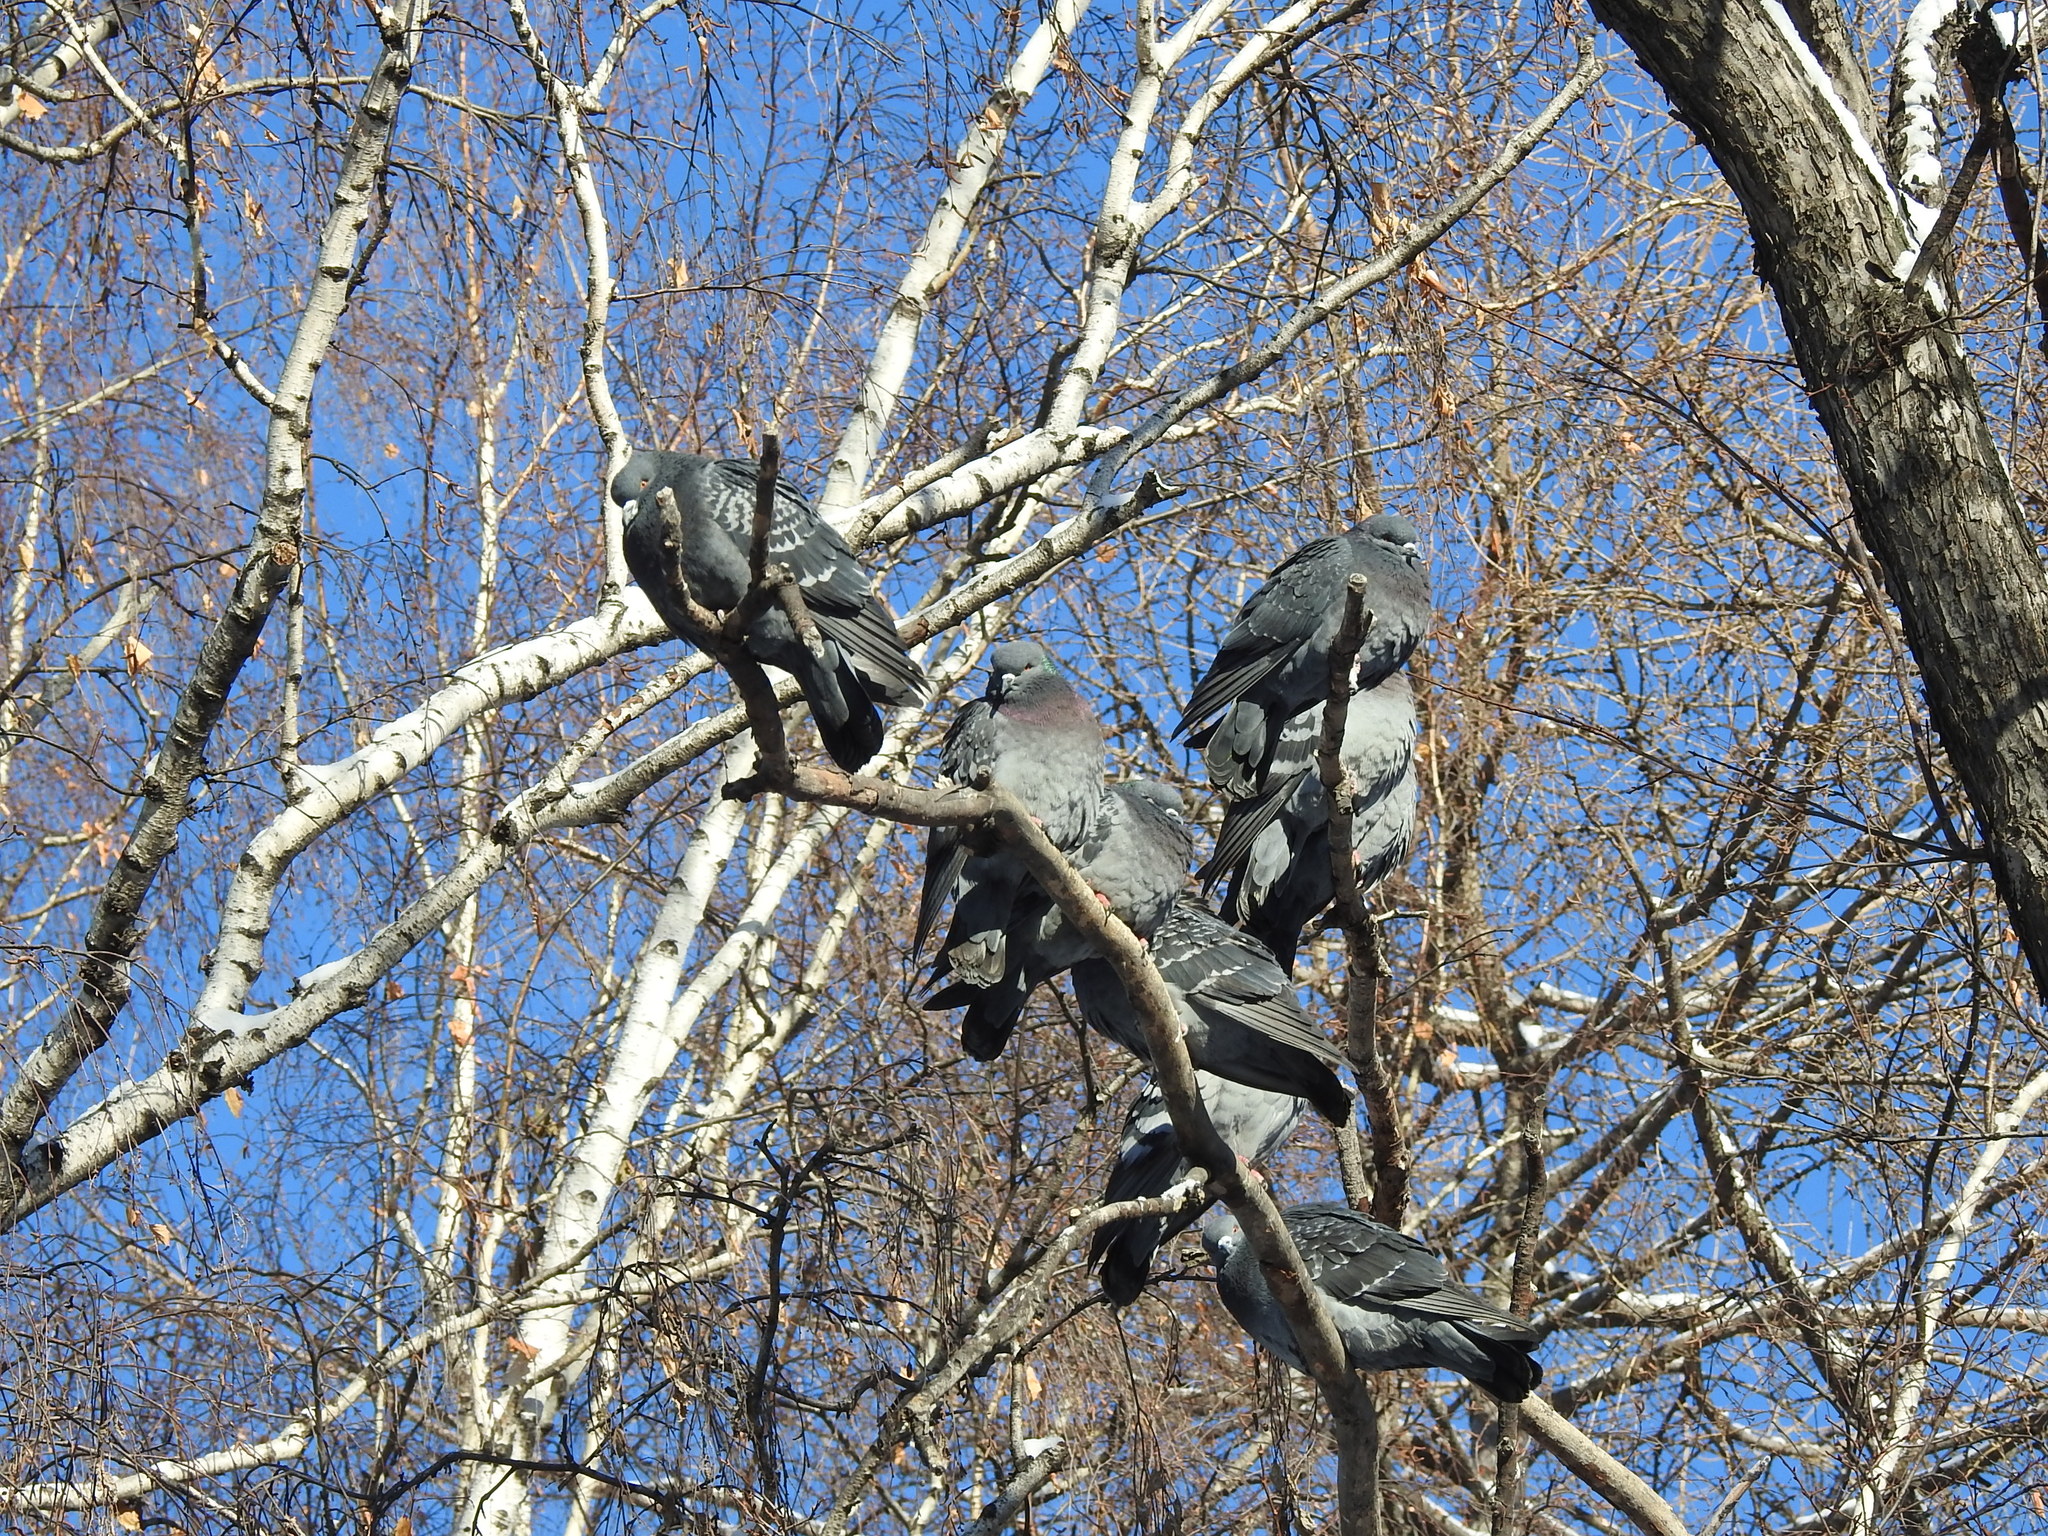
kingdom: Animalia
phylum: Chordata
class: Aves
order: Columbiformes
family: Columbidae
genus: Columba
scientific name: Columba livia
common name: Rock pigeon
